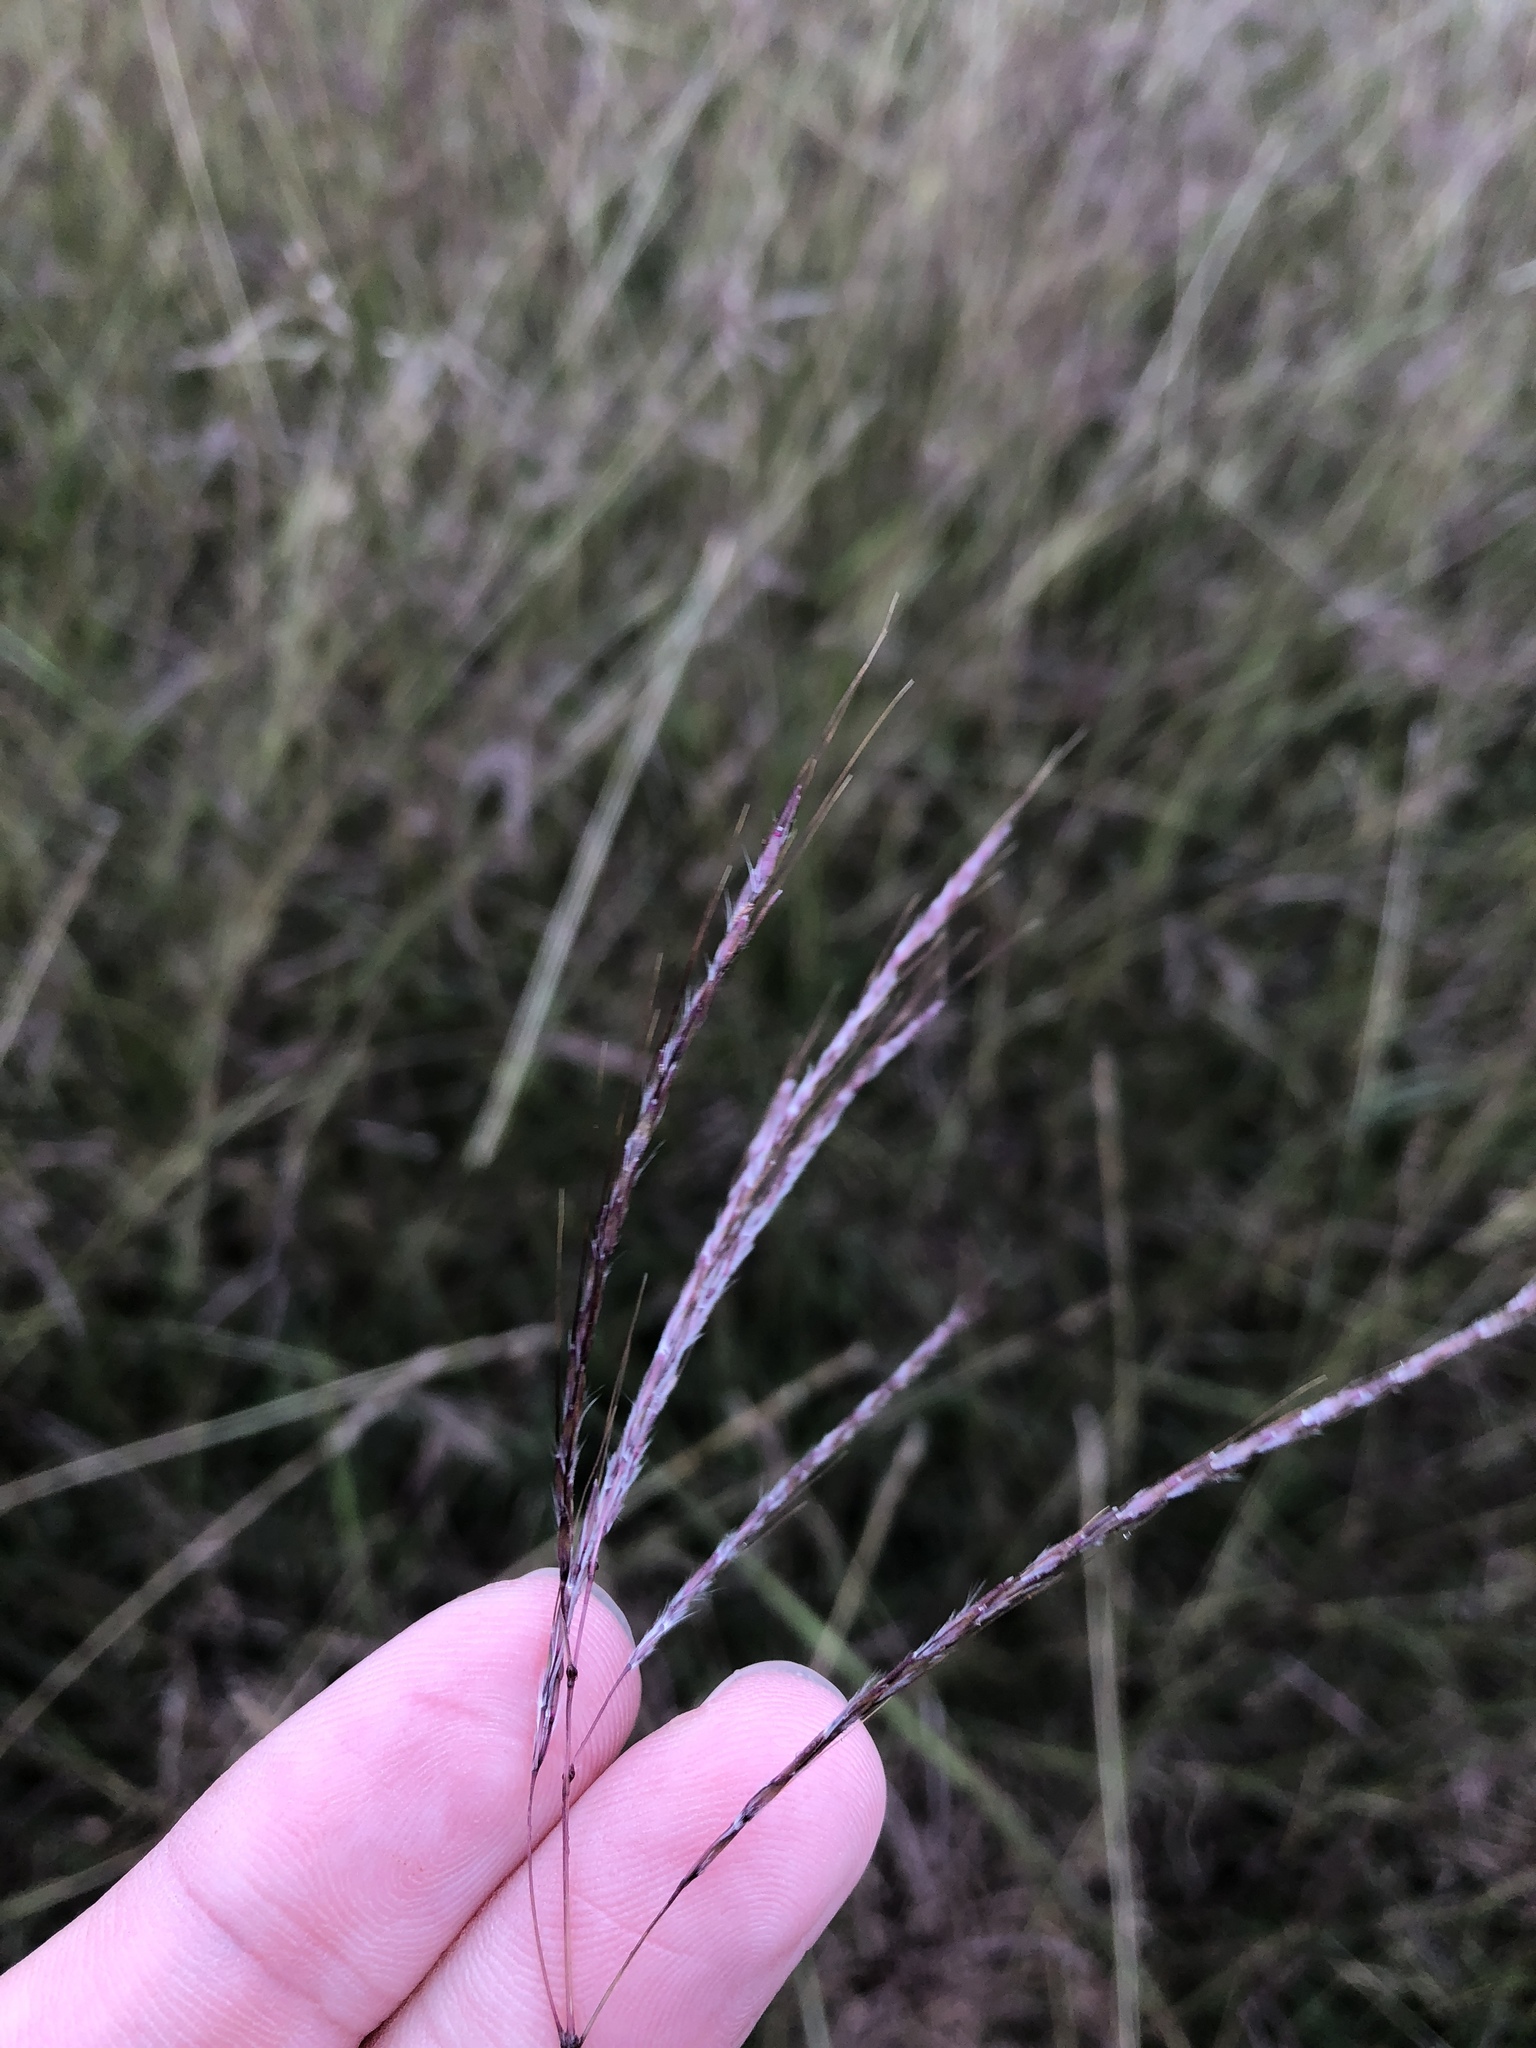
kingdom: Plantae
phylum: Tracheophyta
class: Liliopsida
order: Poales
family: Poaceae
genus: Bothriochloa
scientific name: Bothriochloa ischaemum
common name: Yellow bluestem
